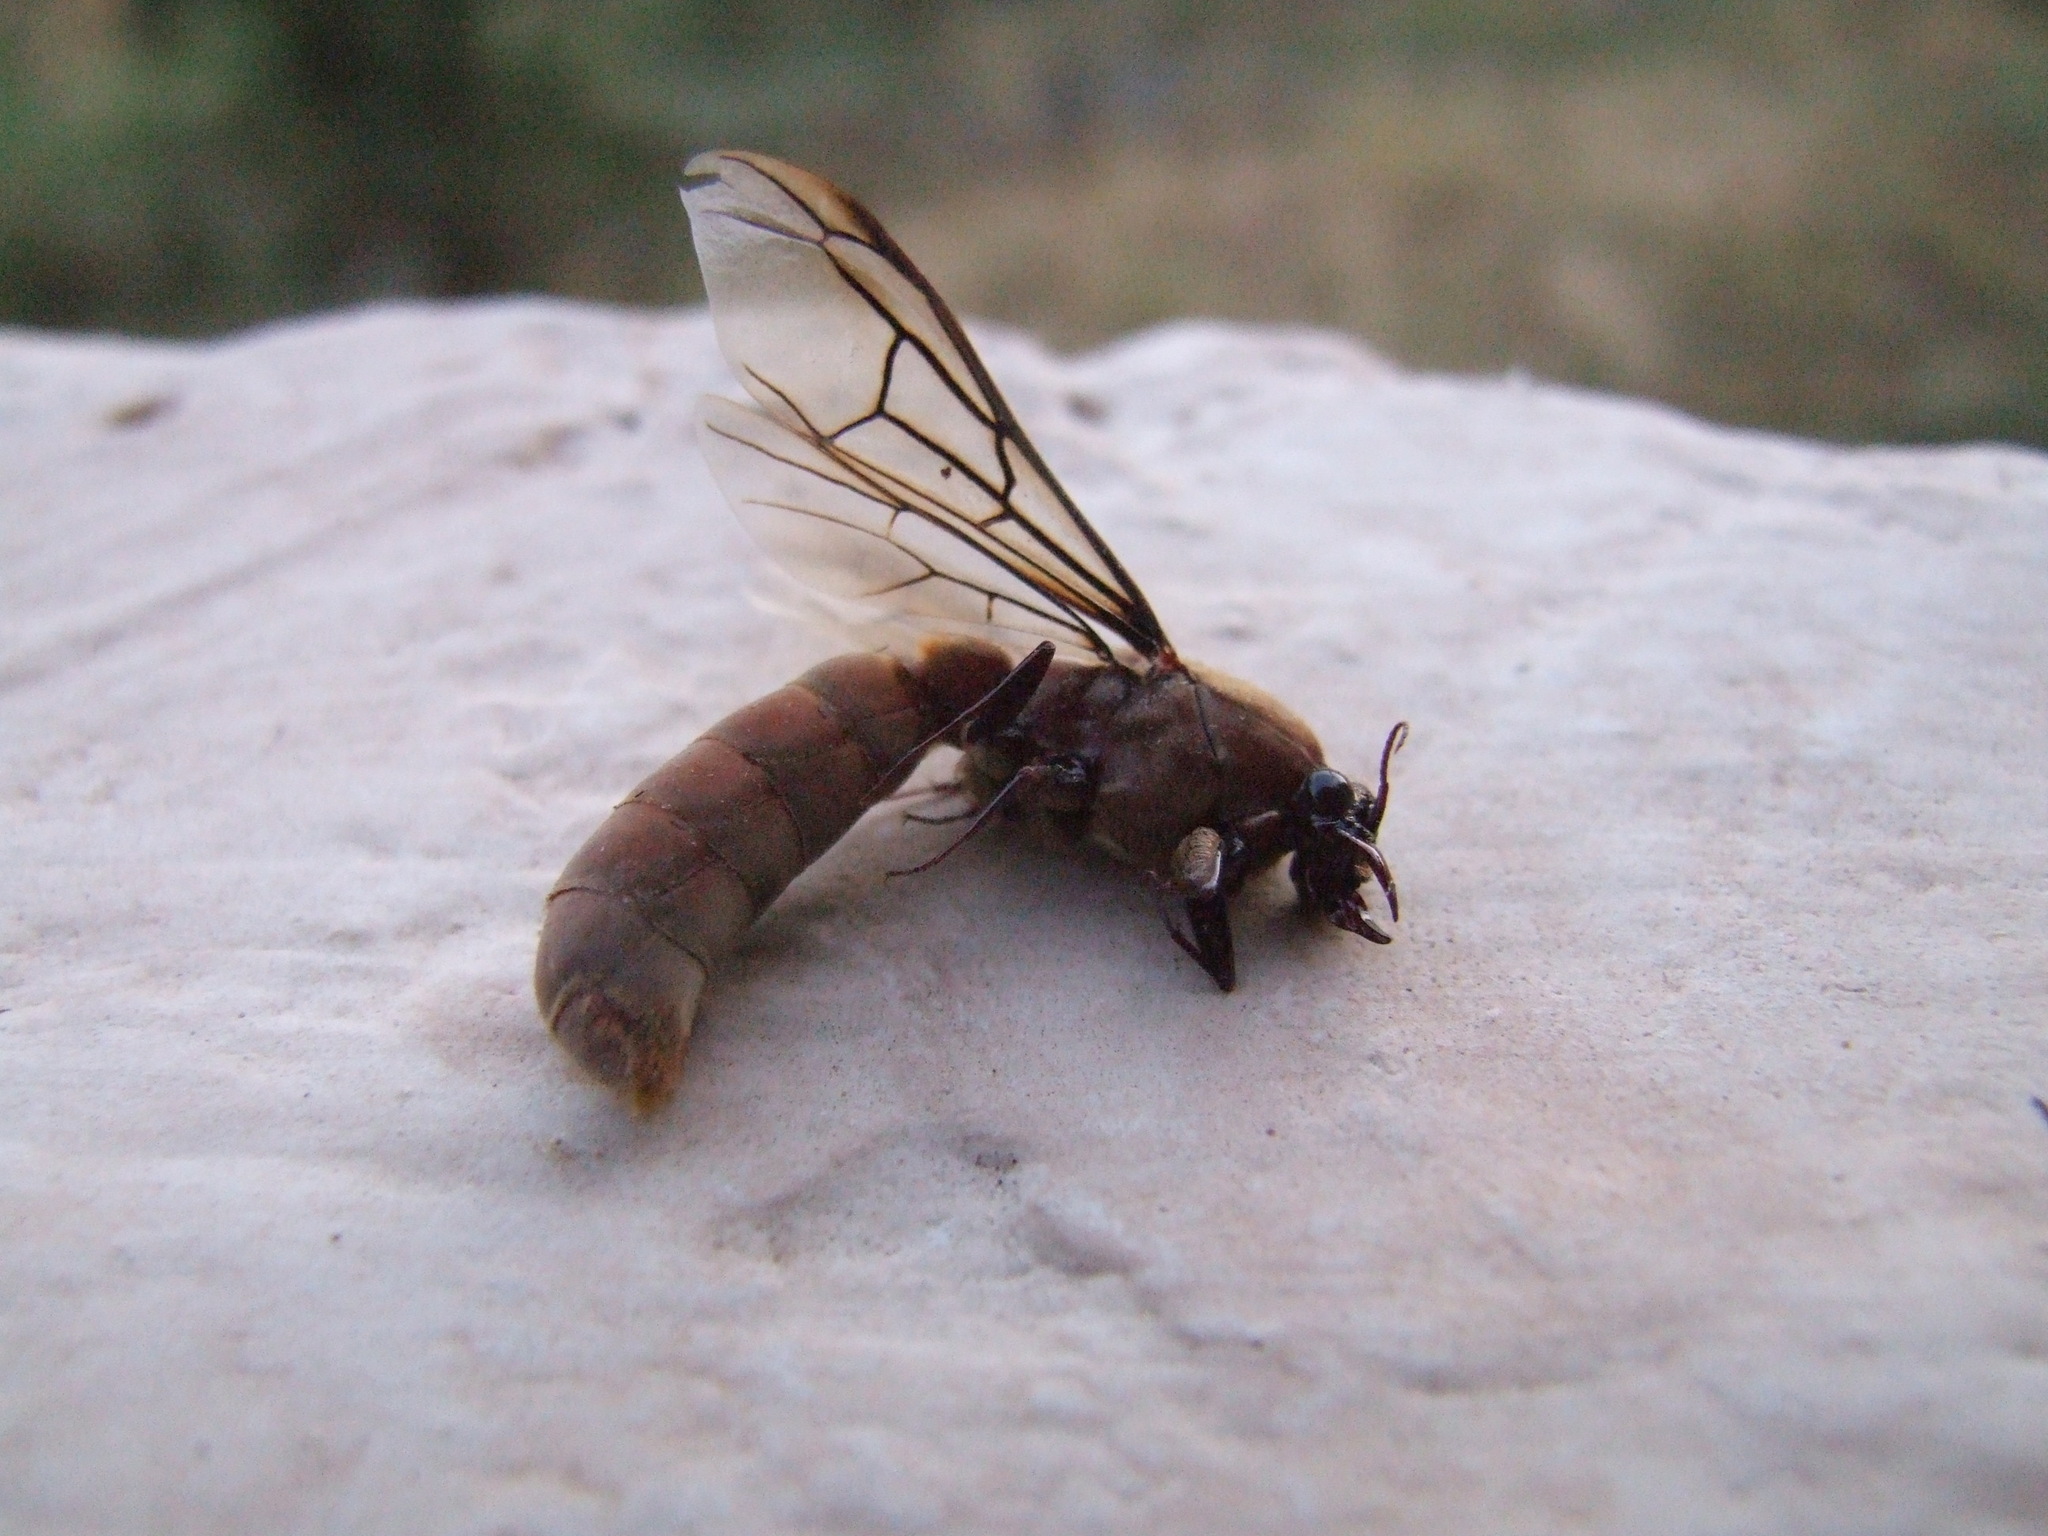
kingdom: Animalia
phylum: Arthropoda
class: Insecta
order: Hymenoptera
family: Formicidae
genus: Dorylus
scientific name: Dorylus
